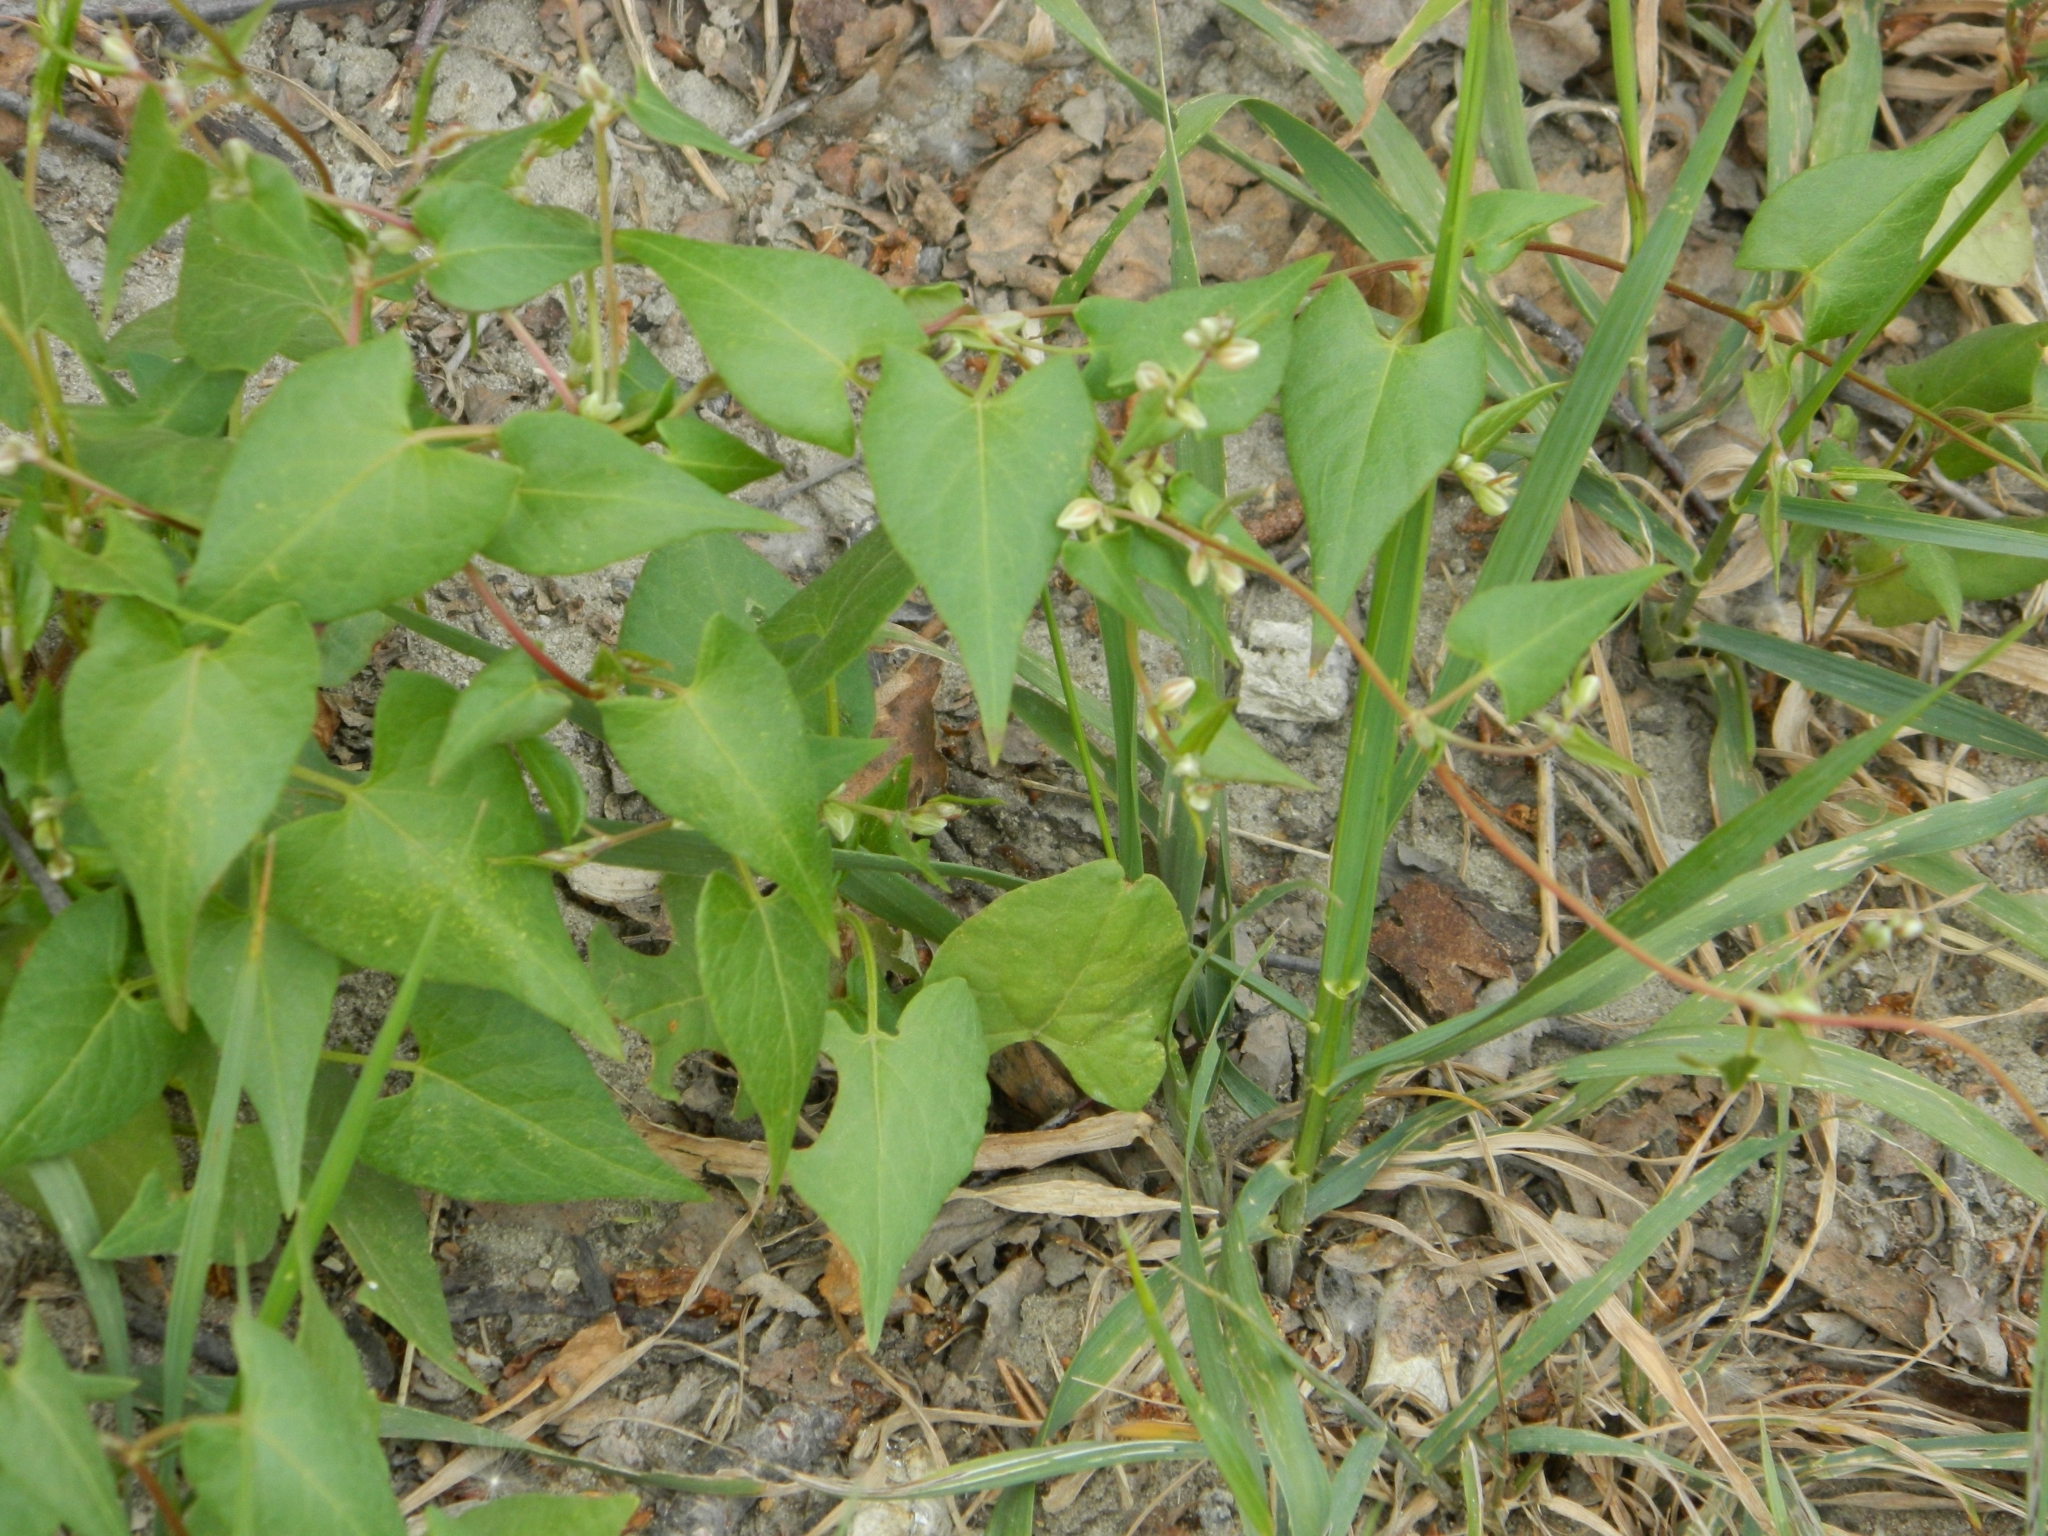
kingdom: Plantae
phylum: Tracheophyta
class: Magnoliopsida
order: Caryophyllales
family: Polygonaceae
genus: Fallopia
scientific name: Fallopia convolvulus
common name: Black bindweed
